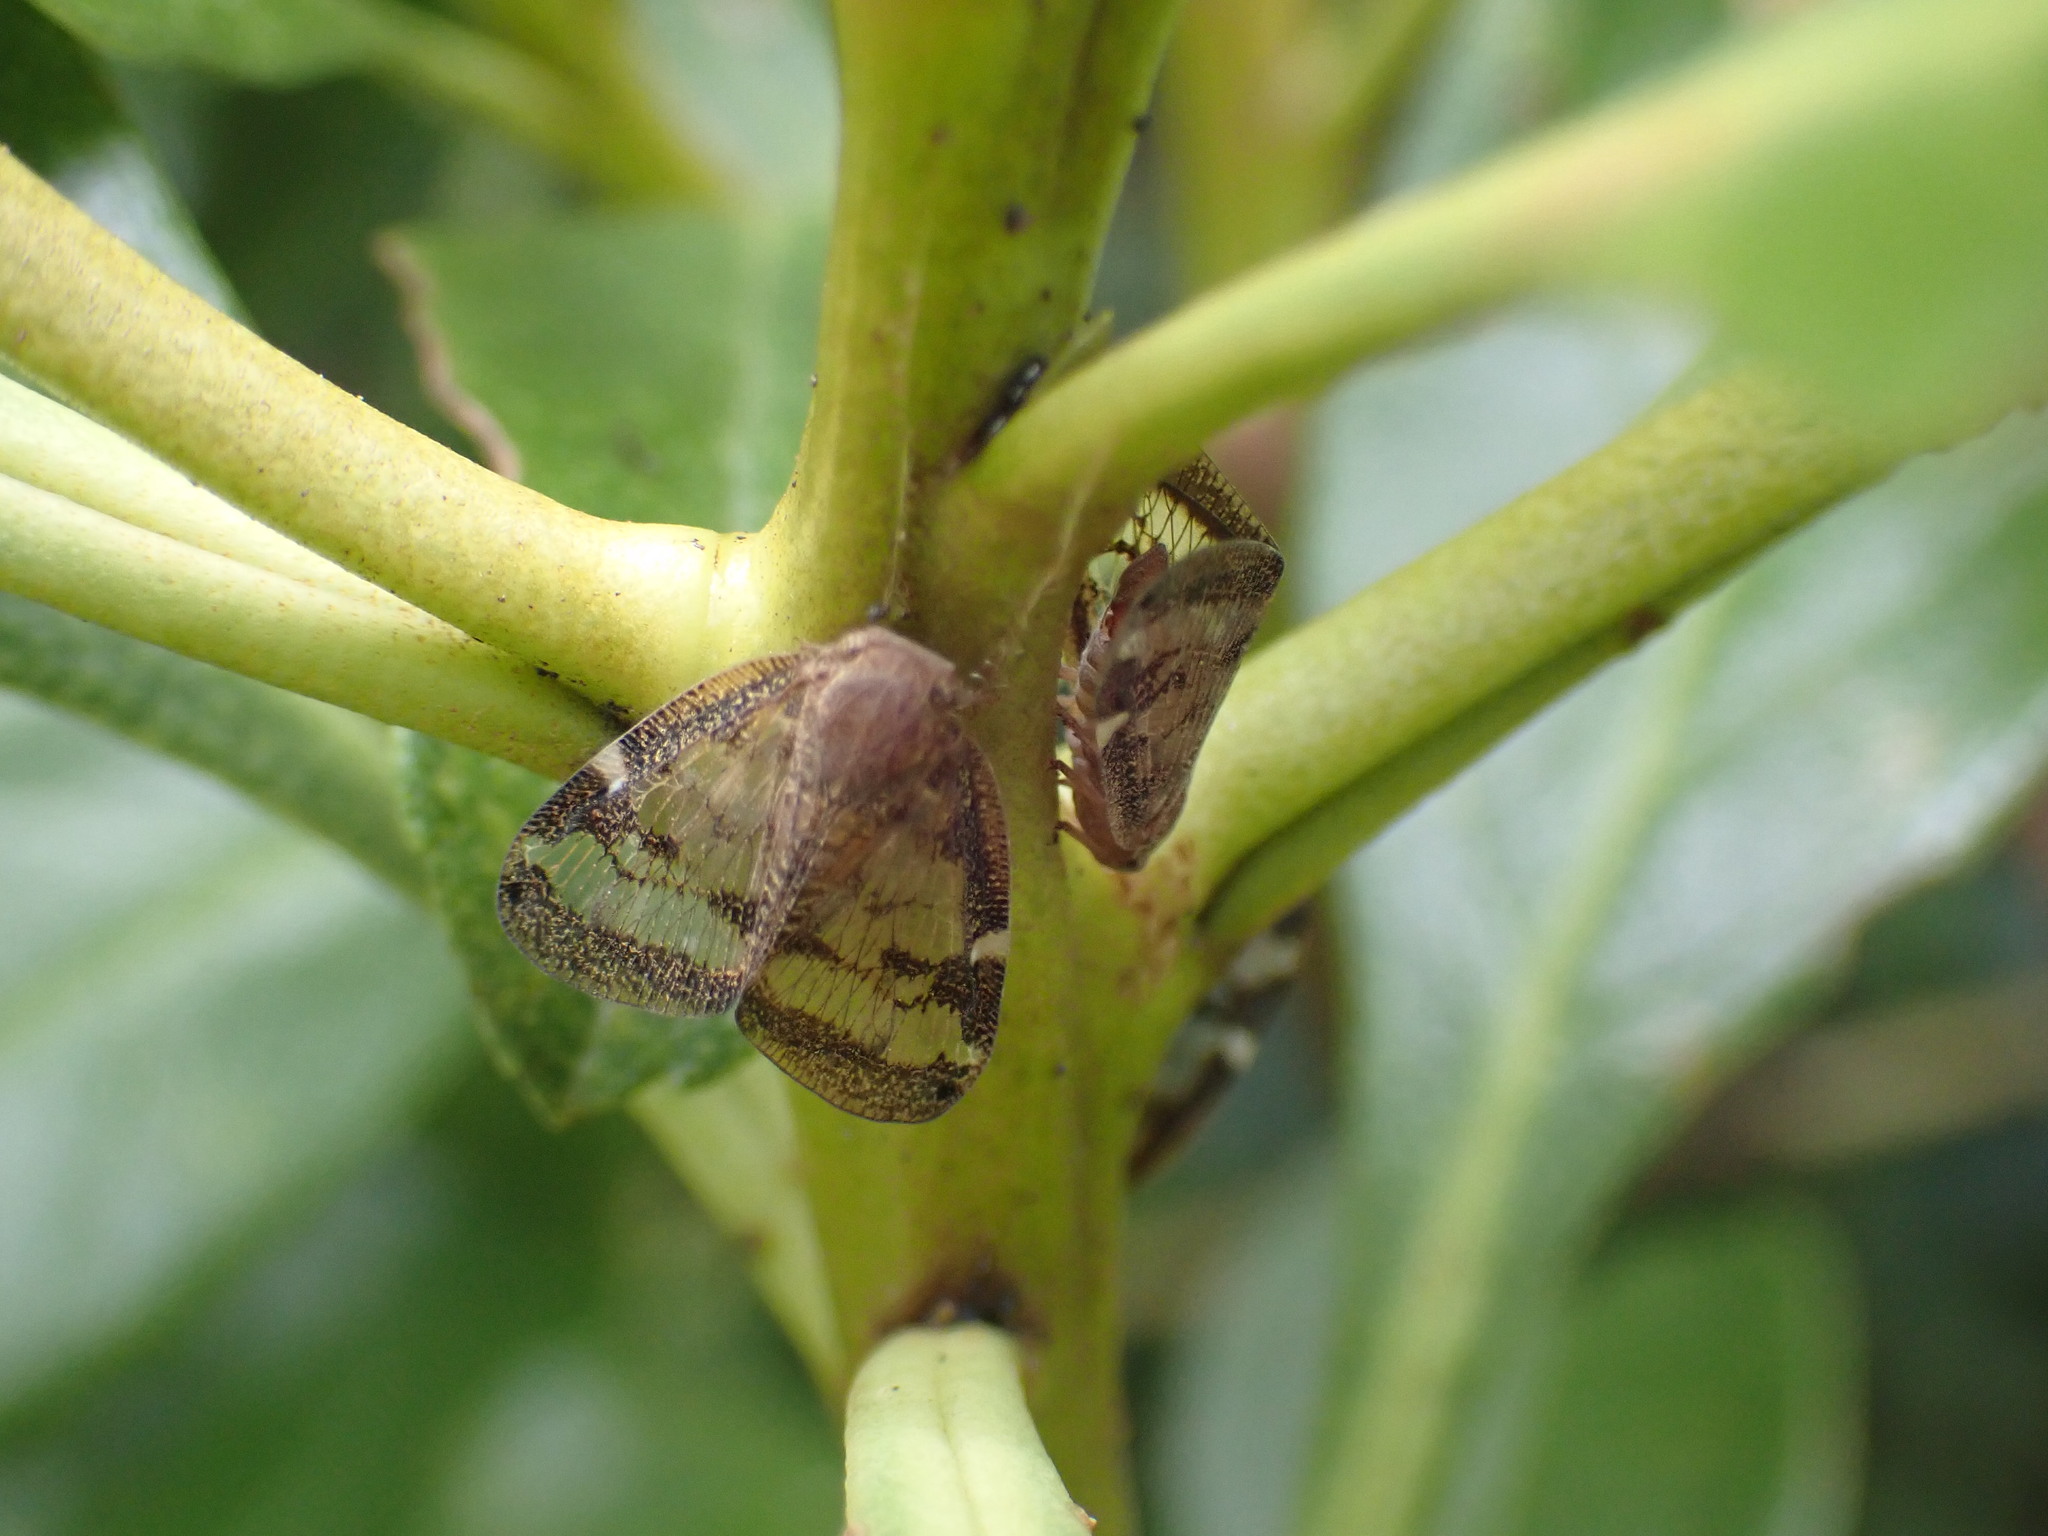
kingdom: Animalia
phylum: Arthropoda
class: Insecta
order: Hemiptera
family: Ricaniidae
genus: Scolypopa
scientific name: Scolypopa australis
